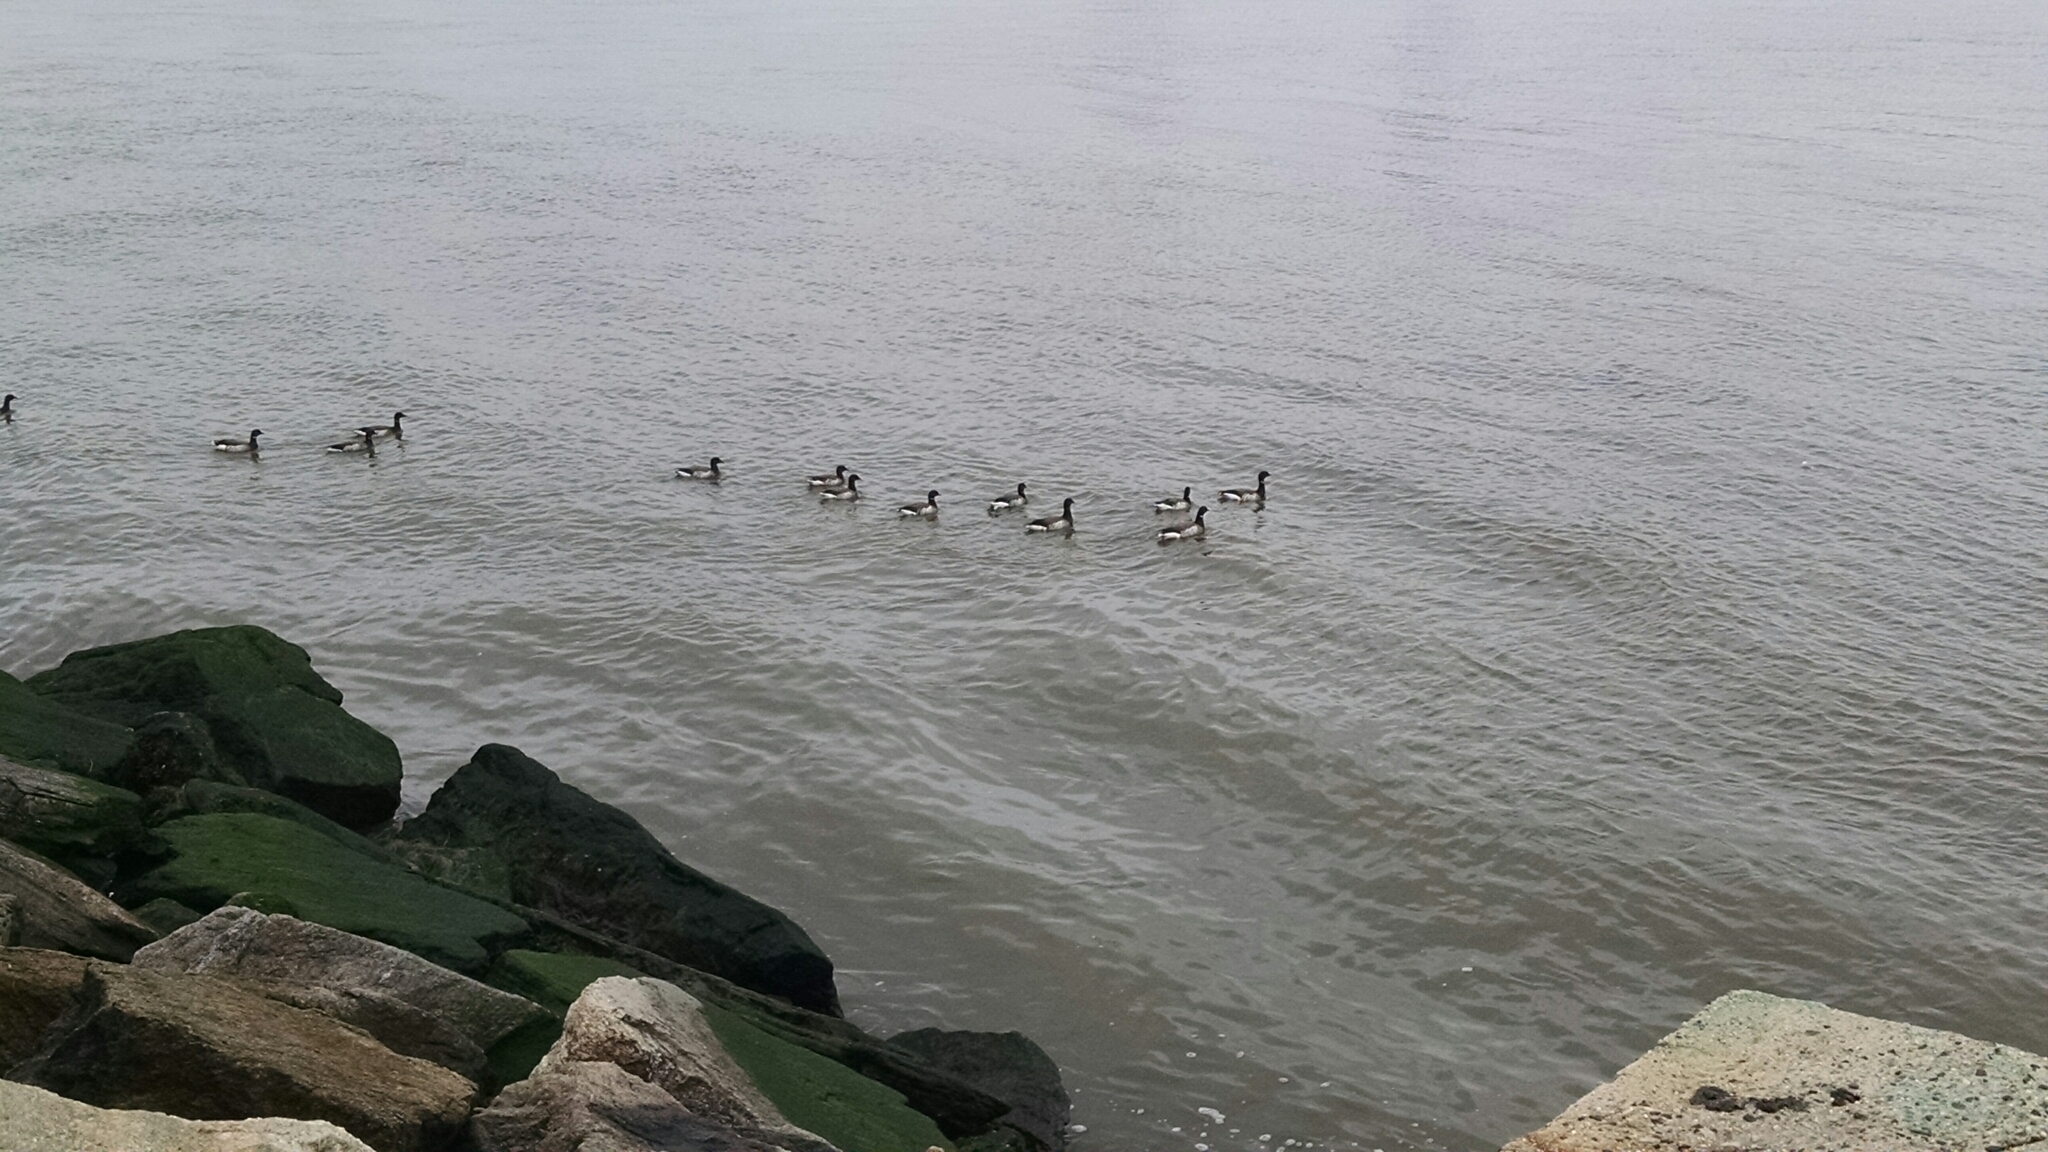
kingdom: Animalia
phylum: Chordata
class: Aves
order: Anseriformes
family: Anatidae
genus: Branta
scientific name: Branta bernicla
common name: Brant goose
